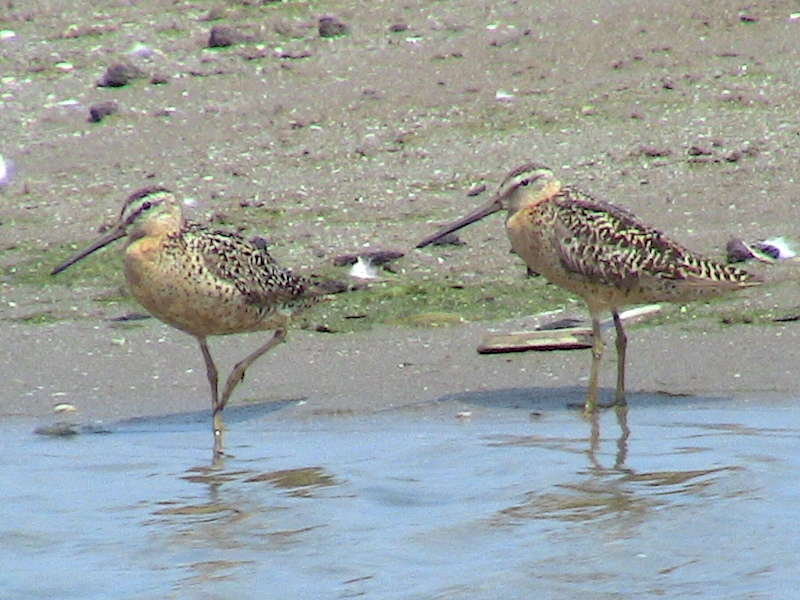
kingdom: Animalia
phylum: Chordata
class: Aves
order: Charadriiformes
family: Scolopacidae
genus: Limnodromus
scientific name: Limnodromus griseus
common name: Short-billed dowitcher
